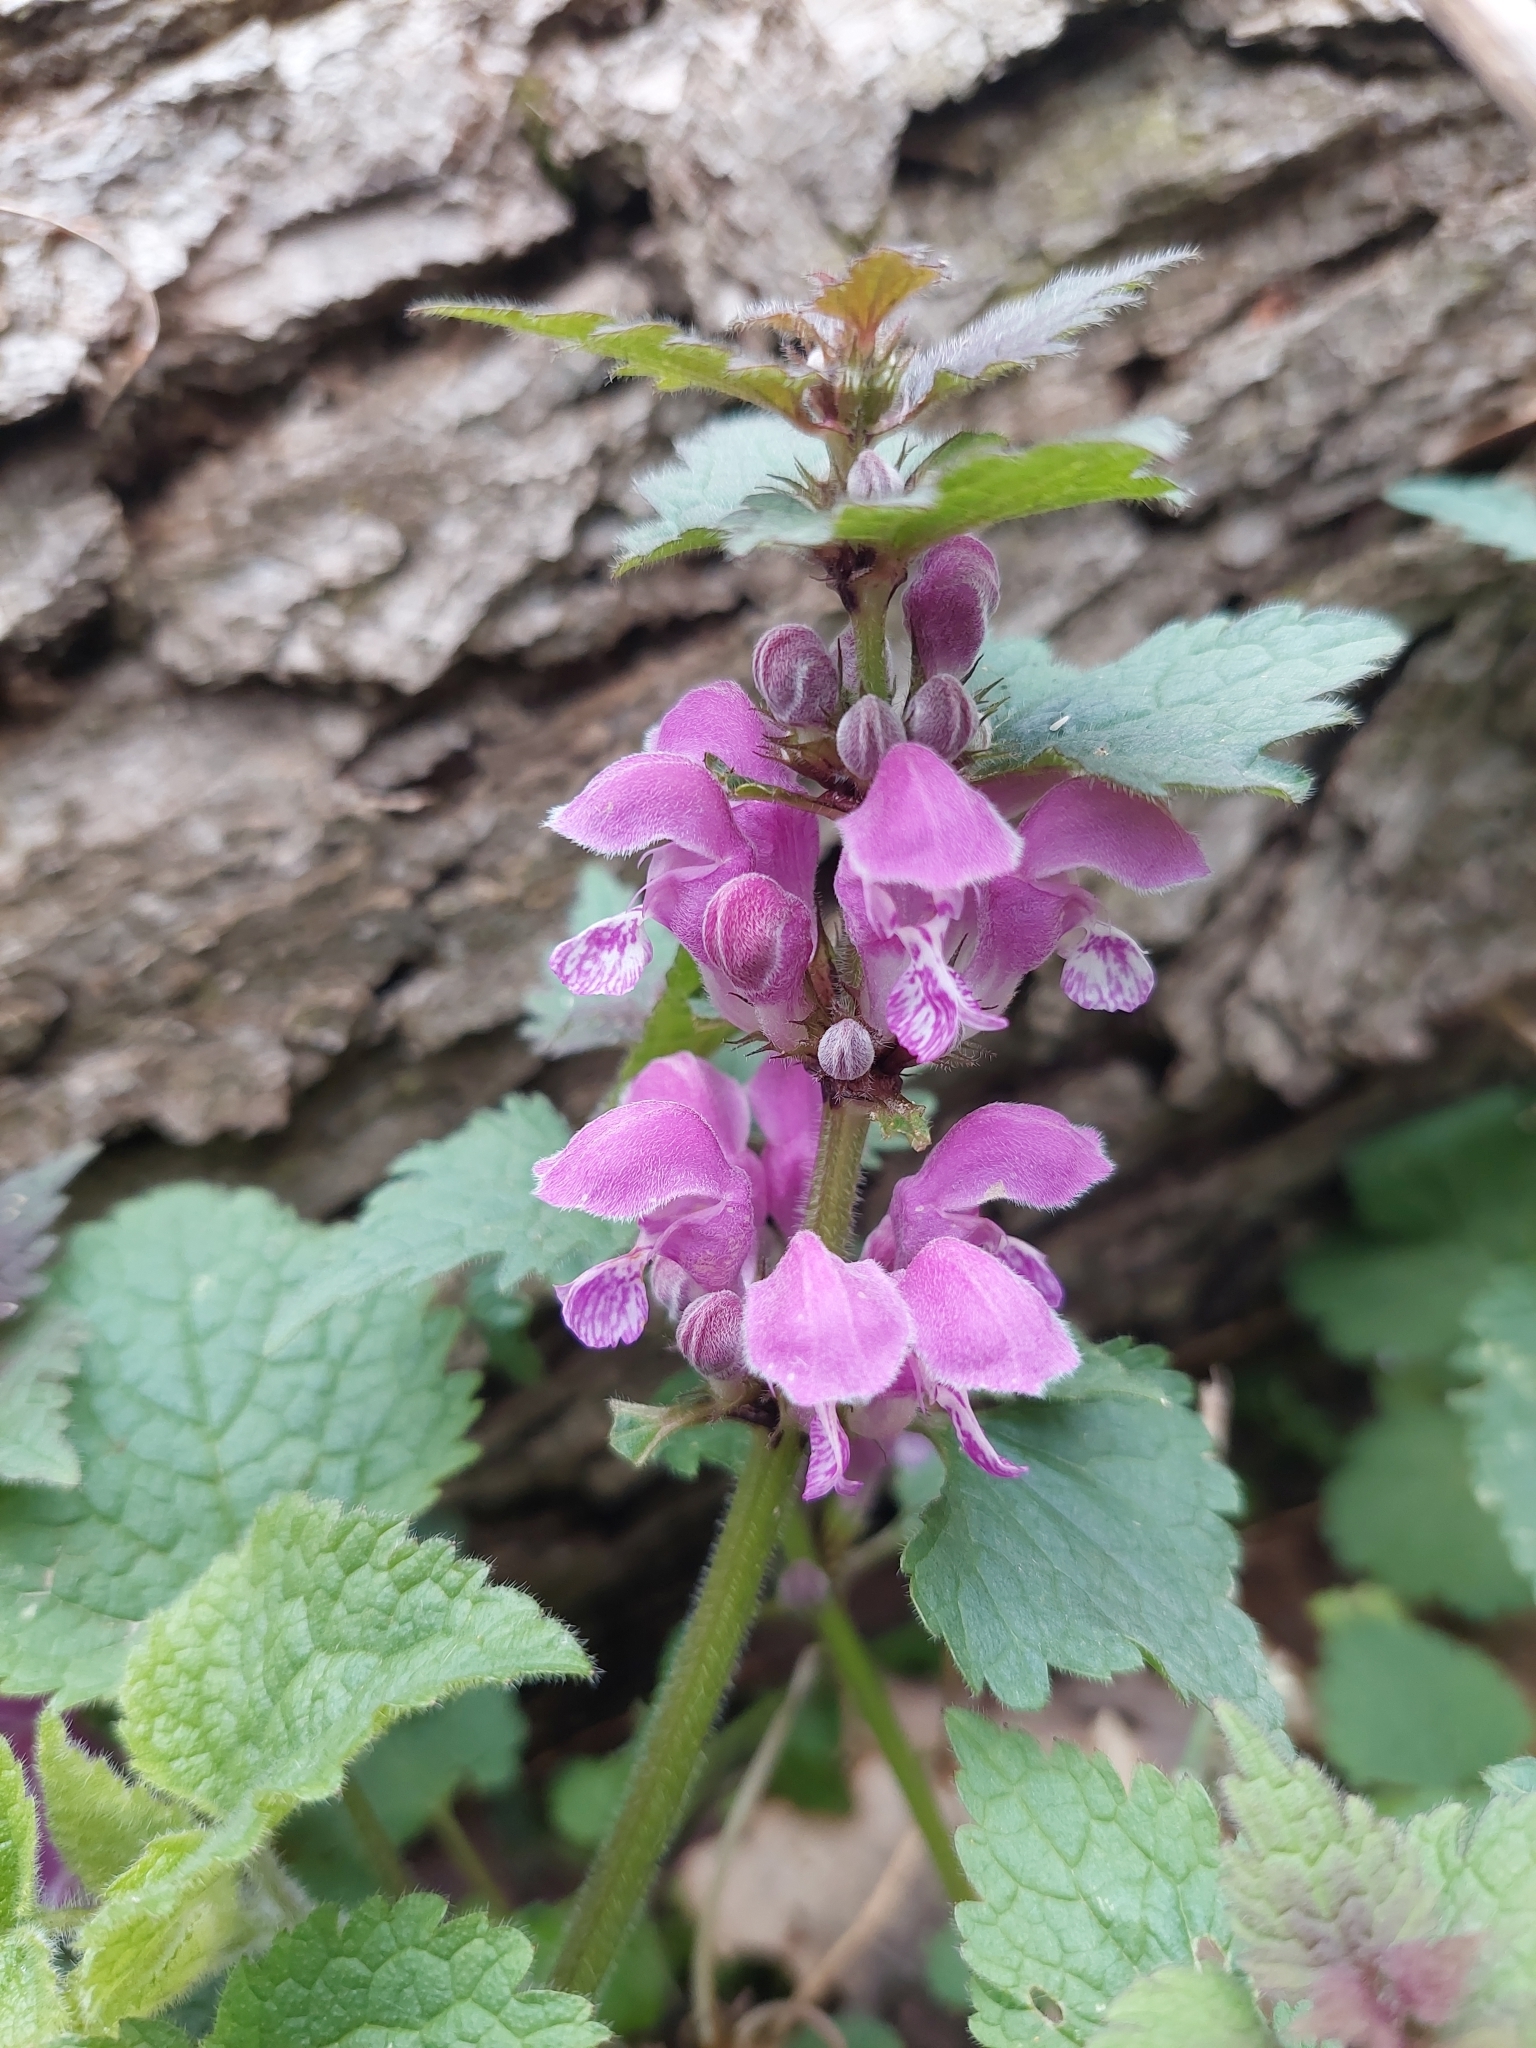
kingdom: Plantae
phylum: Tracheophyta
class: Magnoliopsida
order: Lamiales
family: Lamiaceae
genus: Lamium
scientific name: Lamium maculatum
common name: Spotted dead-nettle
